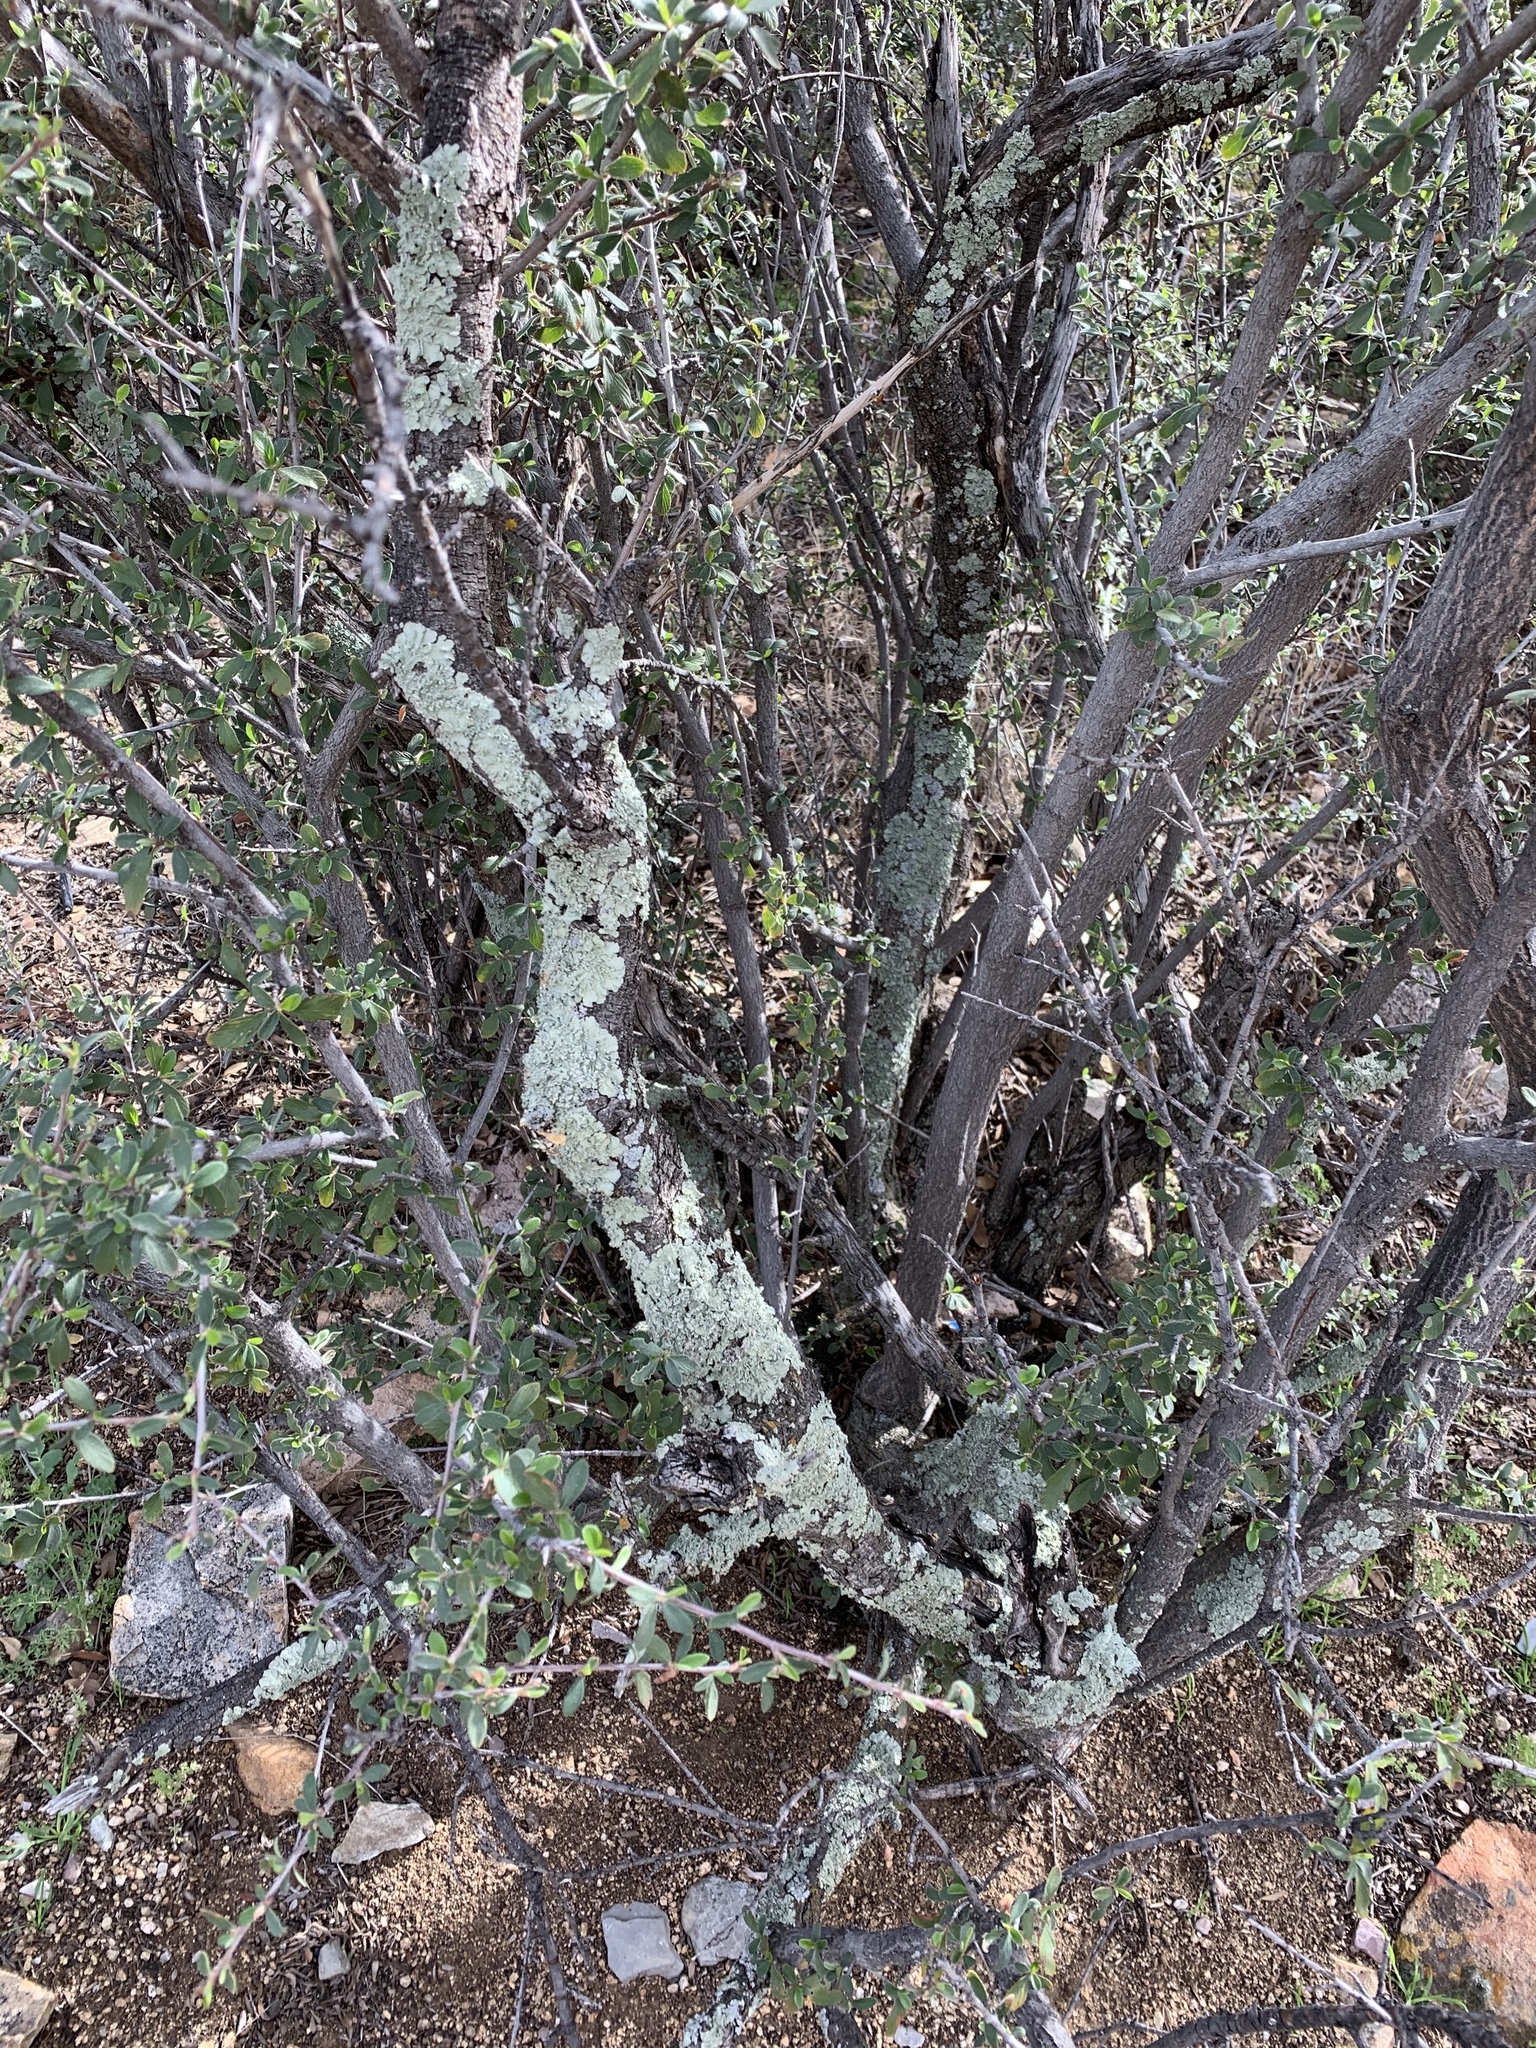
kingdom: Fungi
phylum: Ascomycota
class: Lecanoromycetes
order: Lecanorales
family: Parmeliaceae
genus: Flavoparmelia
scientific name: Flavoparmelia caperata
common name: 40-mile per hour lichen
